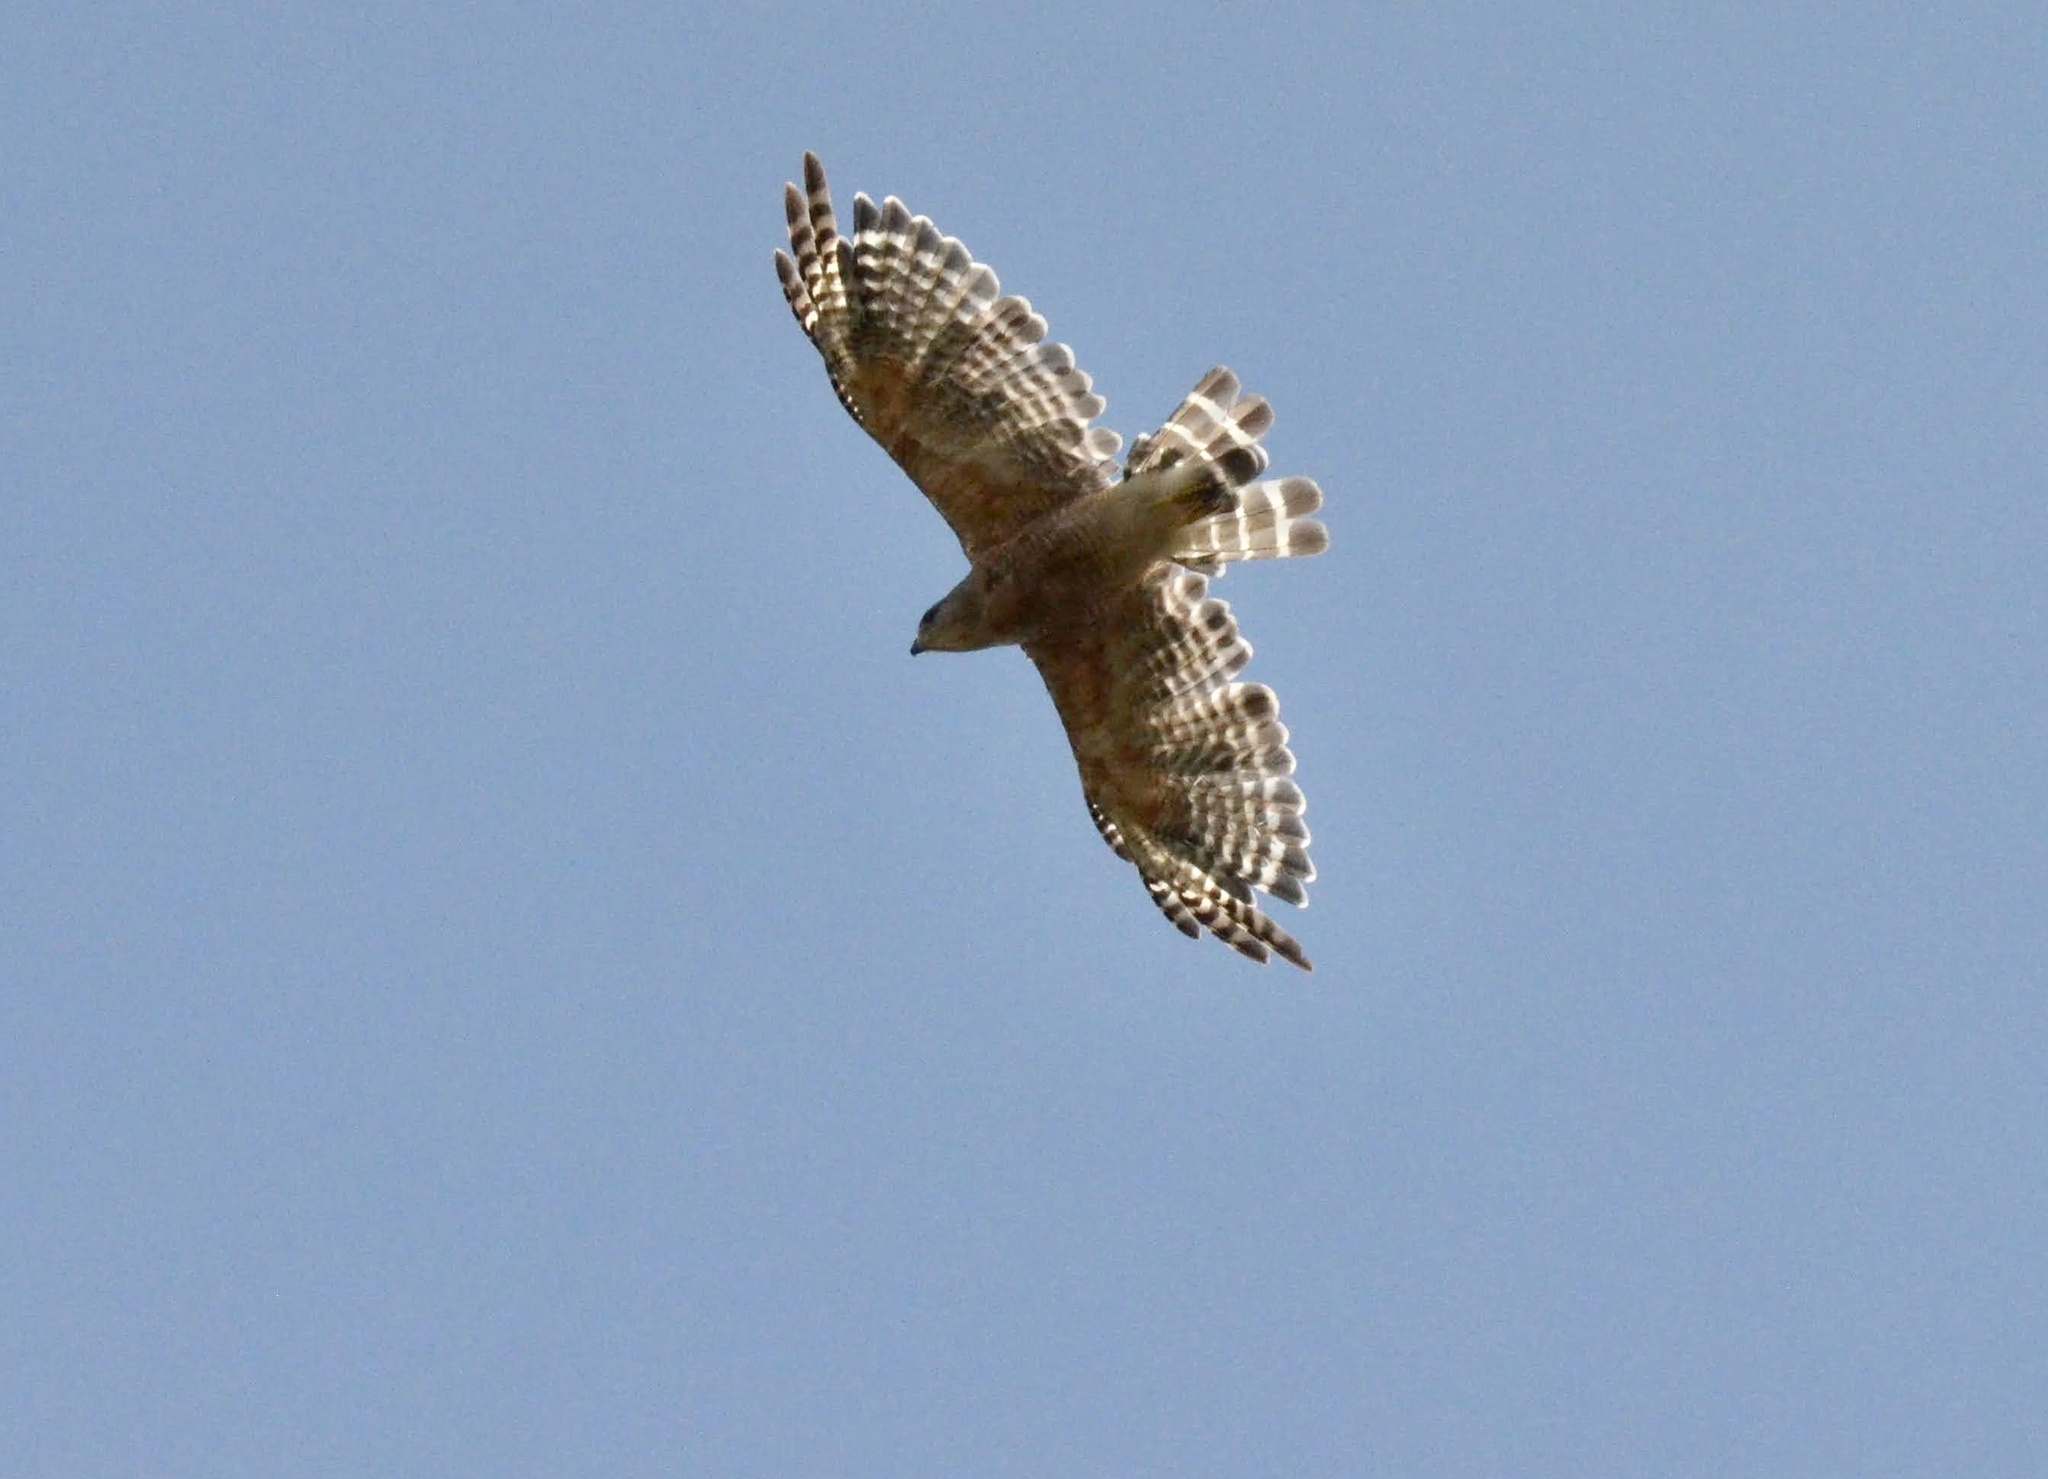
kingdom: Animalia
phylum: Chordata
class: Aves
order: Accipitriformes
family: Accipitridae
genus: Buteo
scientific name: Buteo lineatus
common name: Red-shouldered hawk
